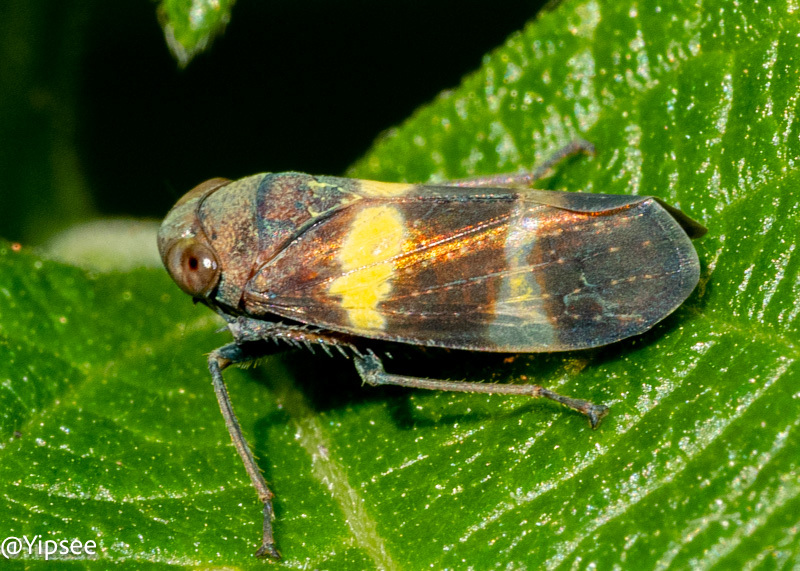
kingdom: Animalia
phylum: Arthropoda
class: Insecta
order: Hemiptera
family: Cicadellidae
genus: Olidiana
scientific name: Olidiana brevis
